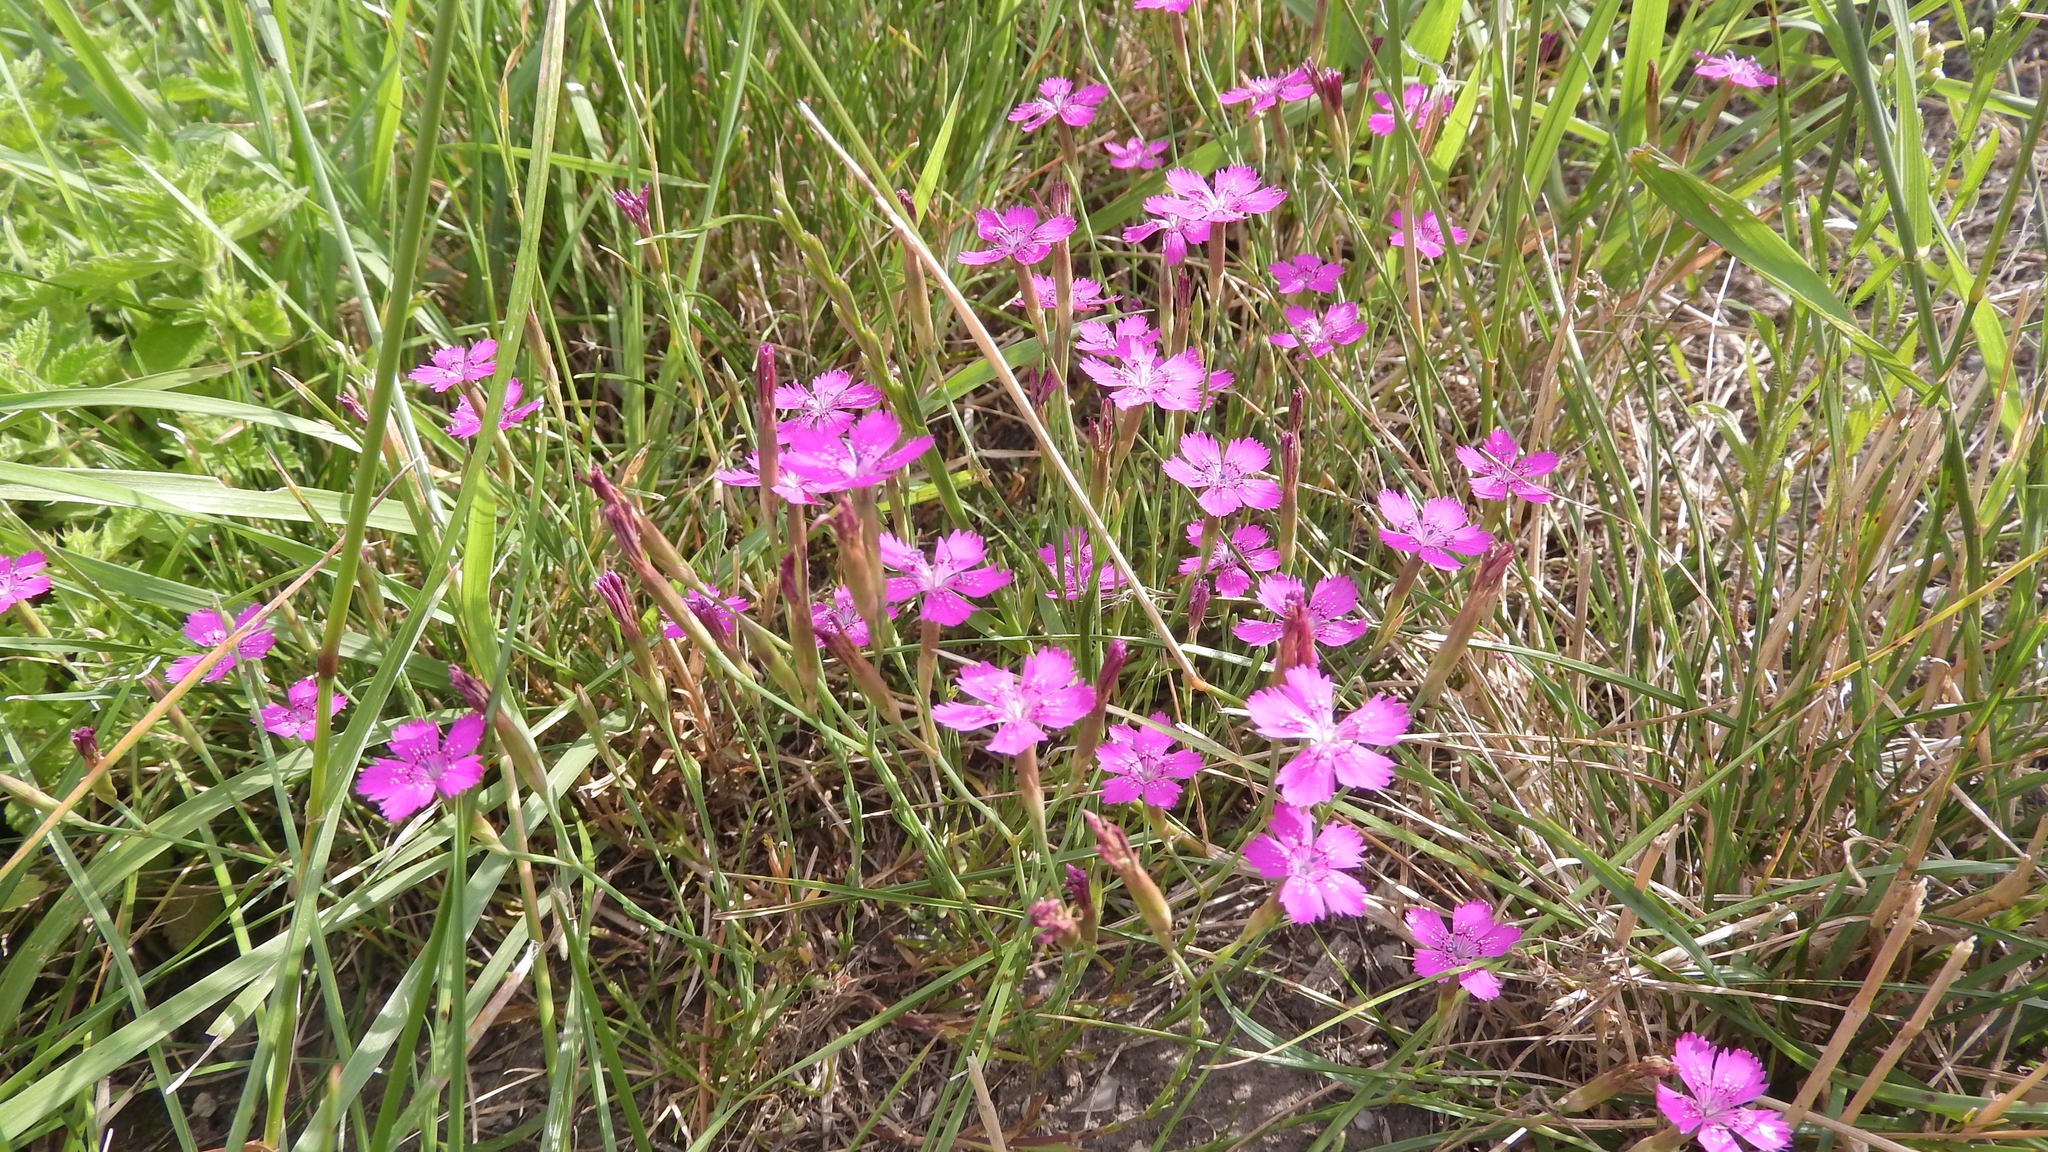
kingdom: Plantae
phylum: Tracheophyta
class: Magnoliopsida
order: Caryophyllales
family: Caryophyllaceae
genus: Dianthus
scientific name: Dianthus deltoides
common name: Maiden pink
